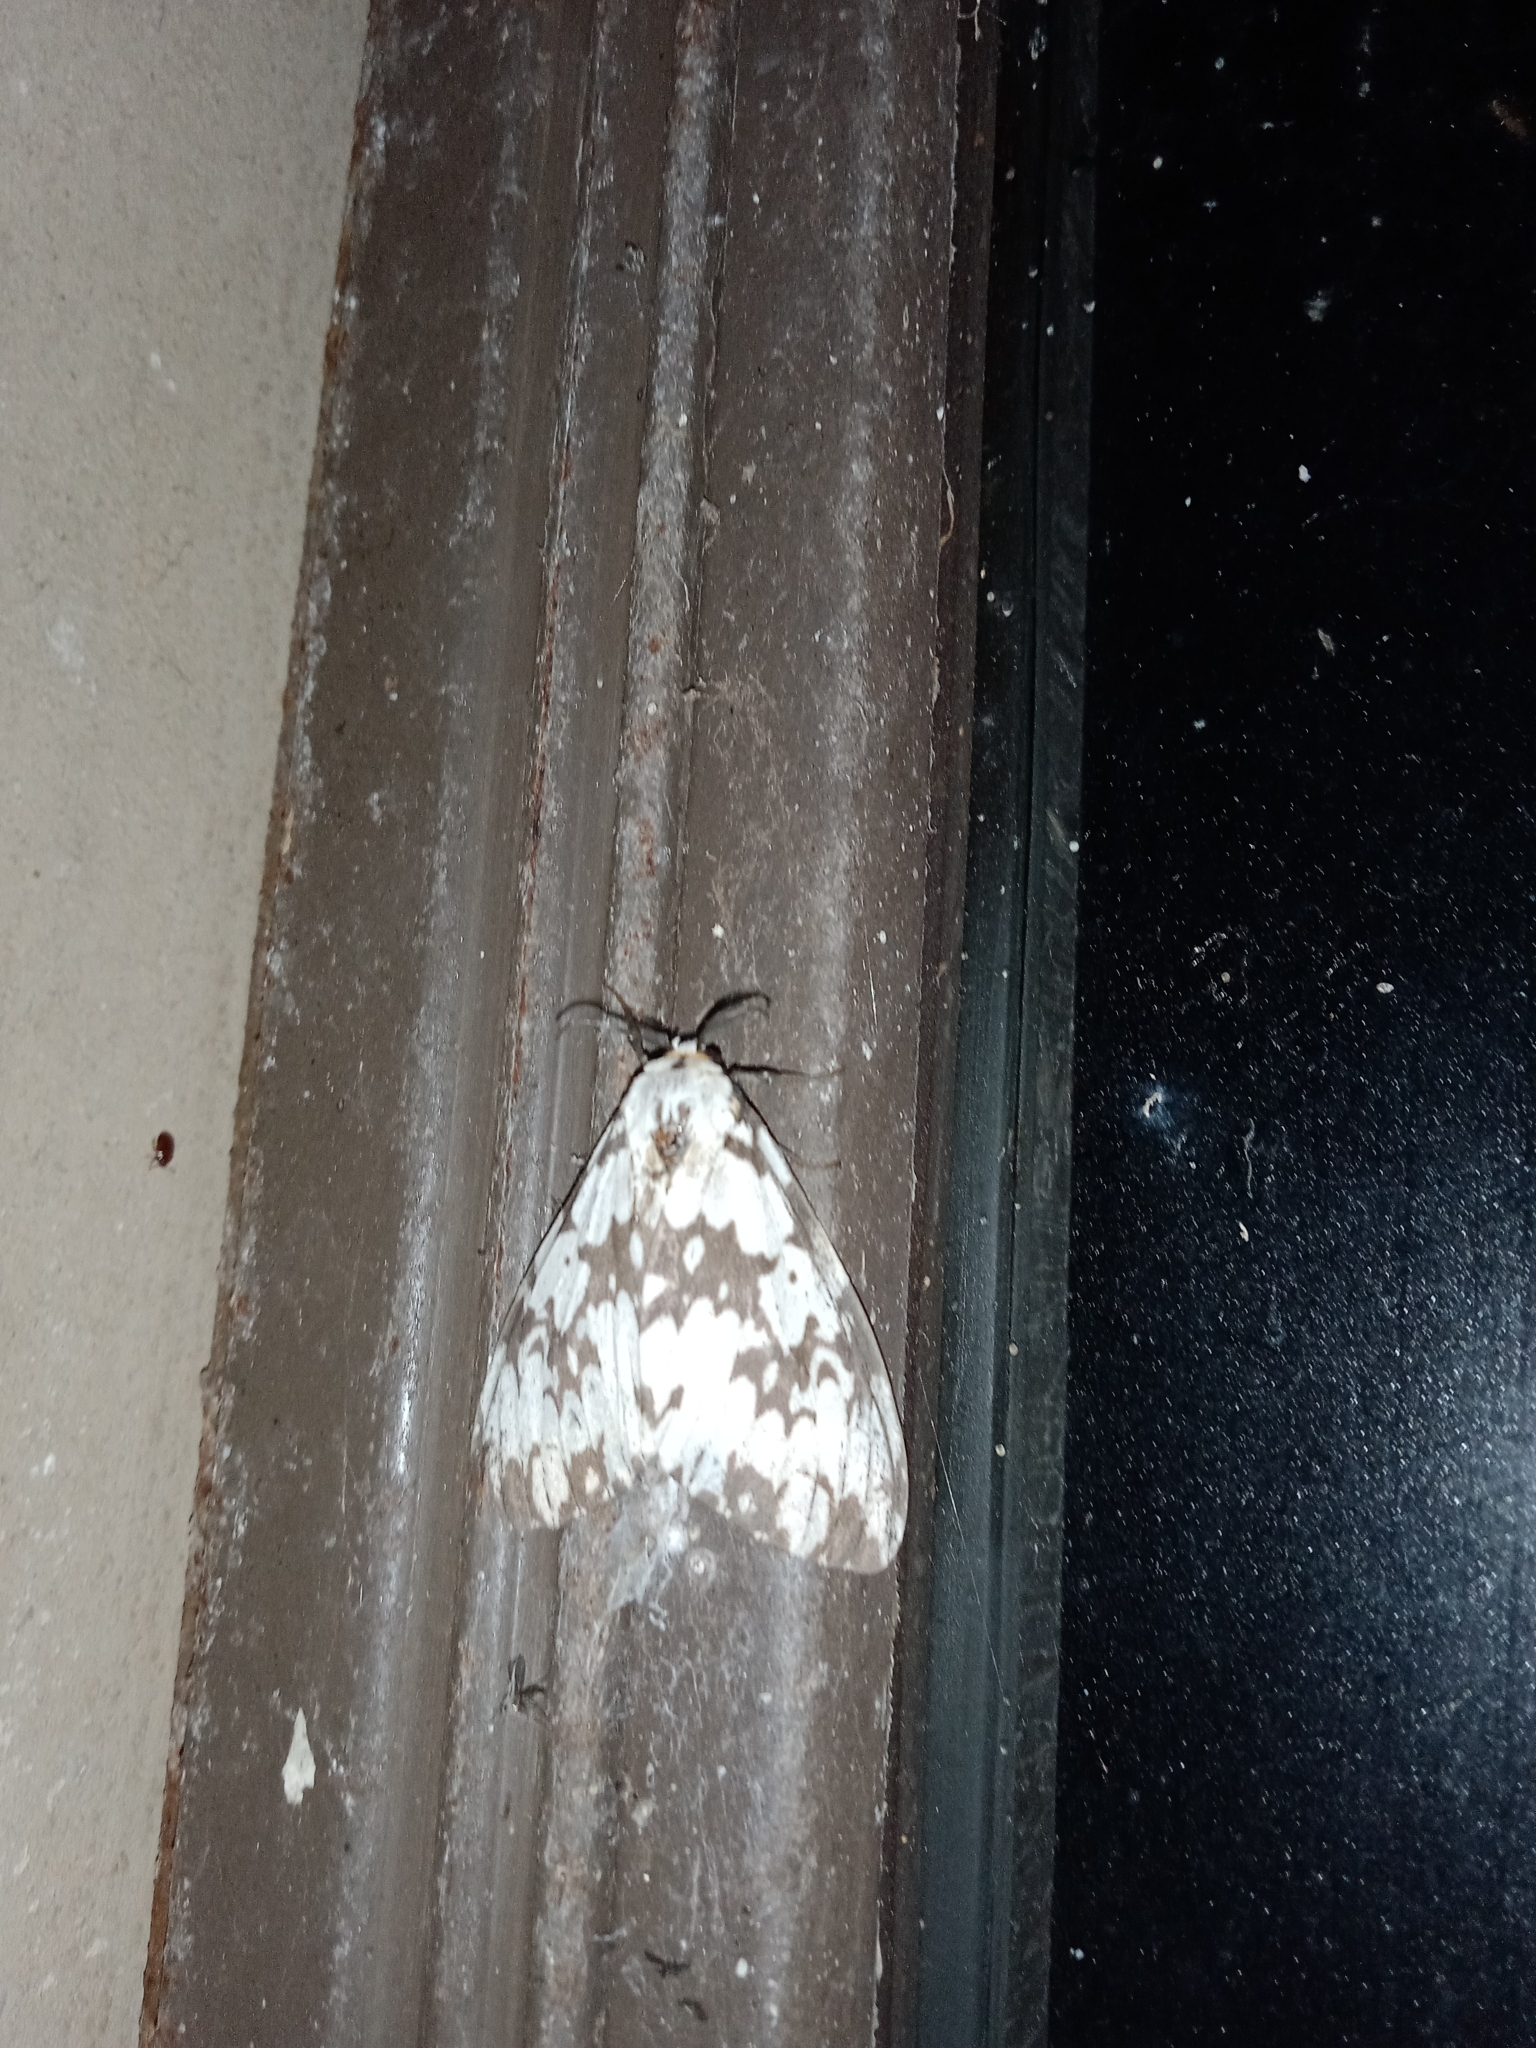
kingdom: Animalia
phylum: Arthropoda
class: Insecta
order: Lepidoptera
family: Erebidae
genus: Lymantria
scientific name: Lymantria marginata
